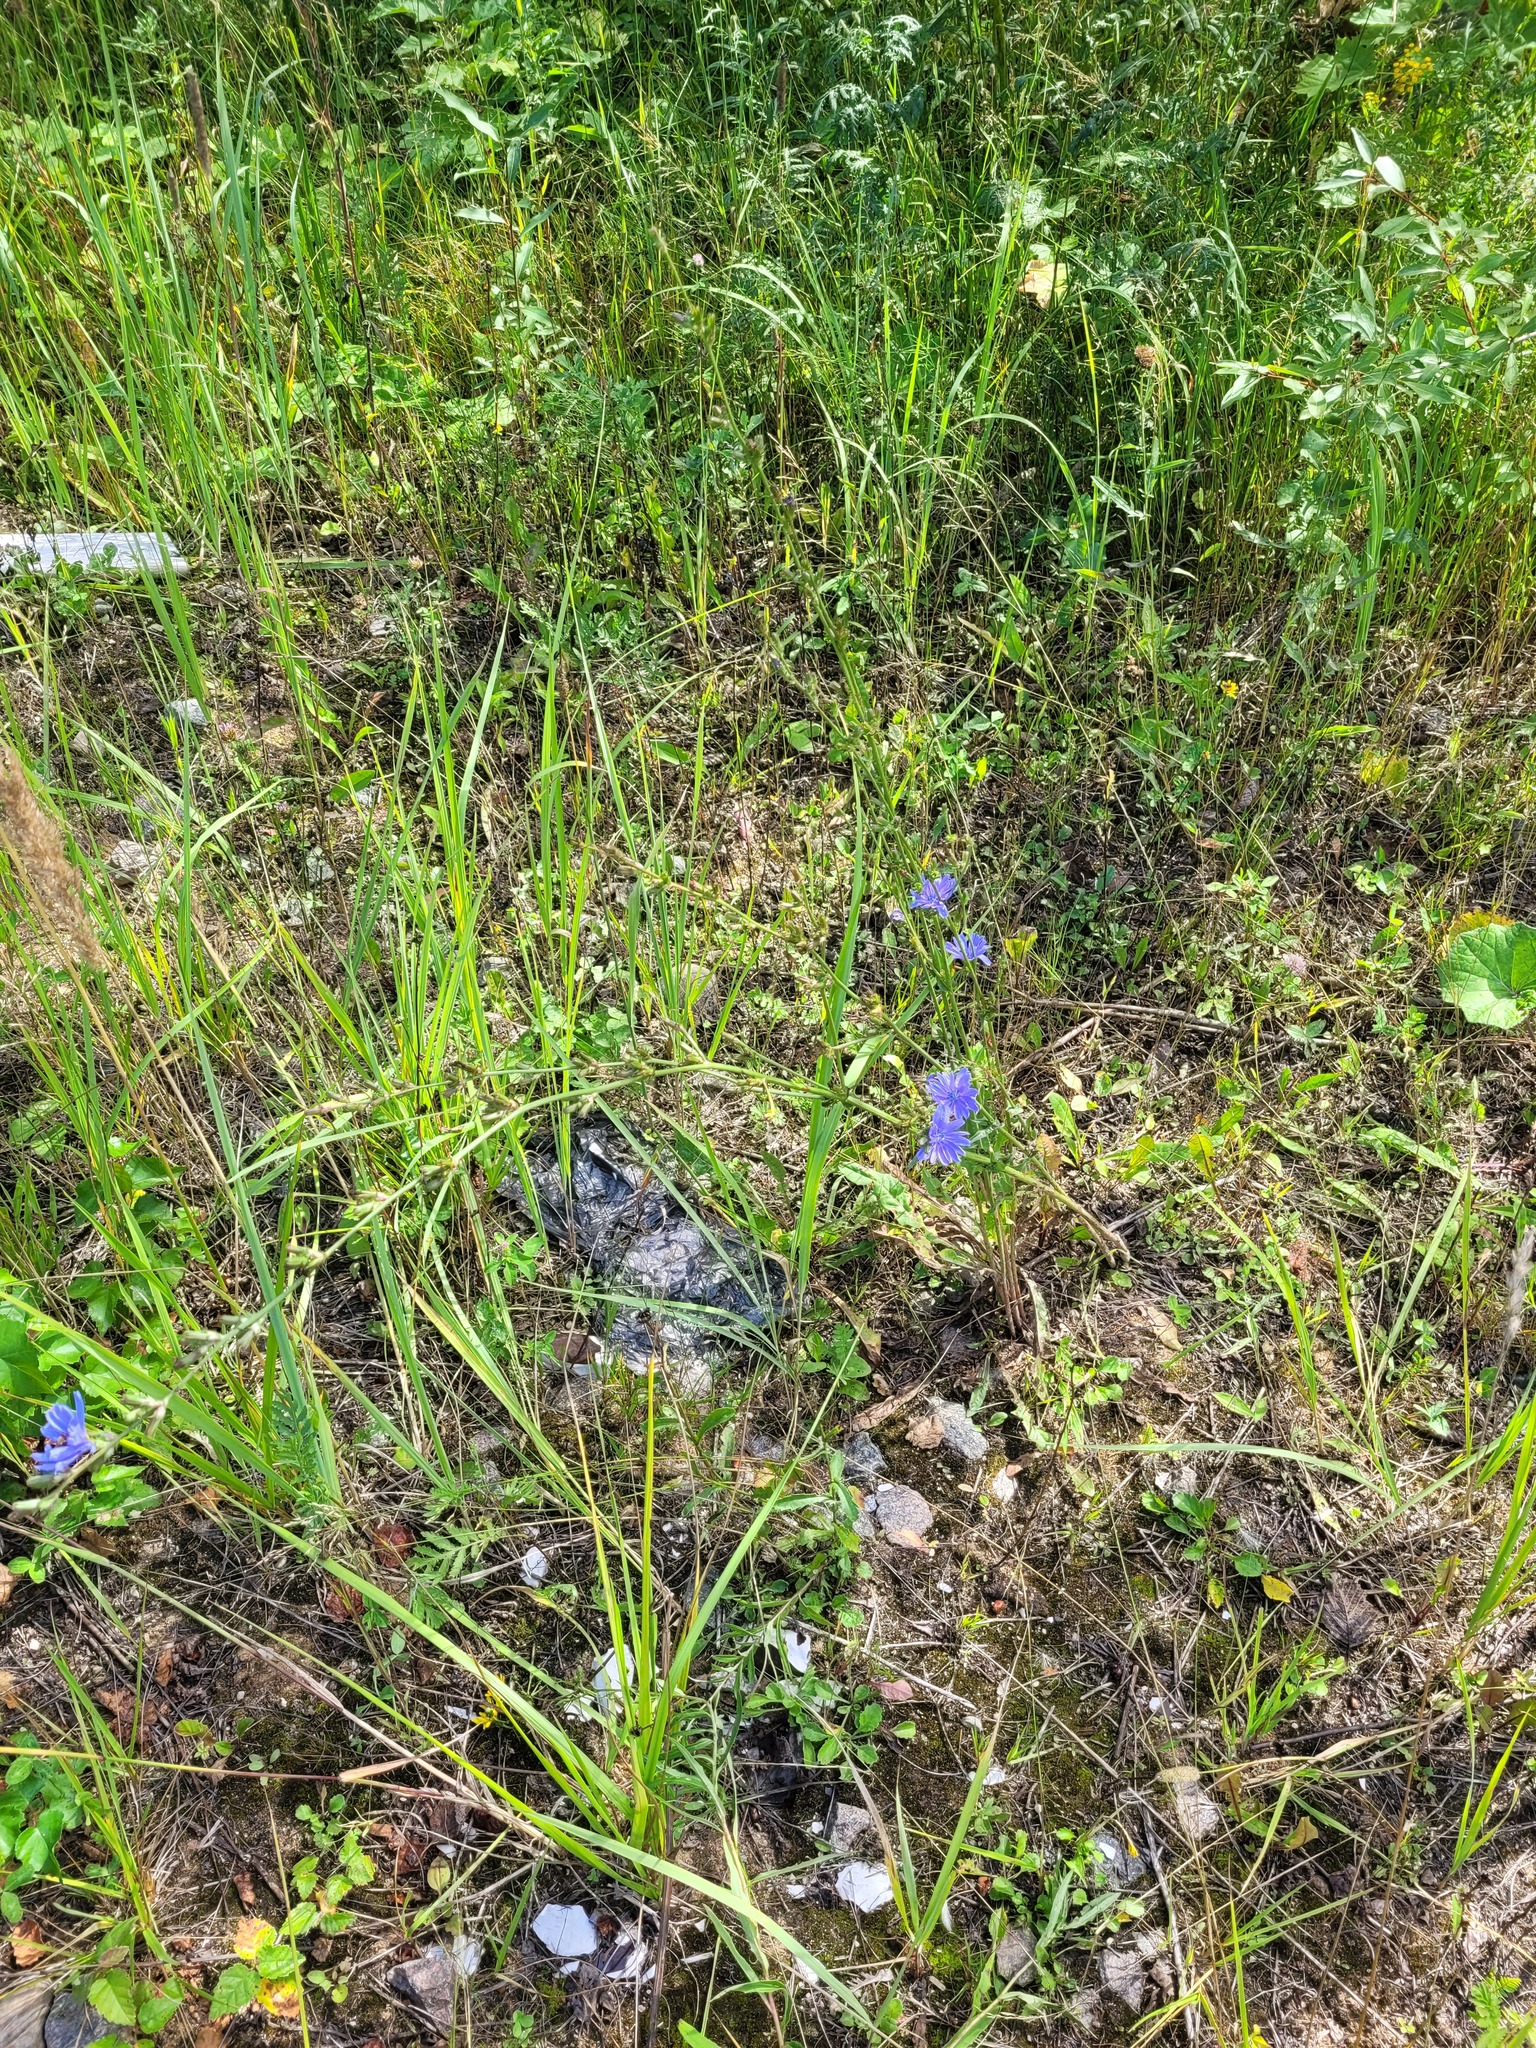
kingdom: Plantae
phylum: Tracheophyta
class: Magnoliopsida
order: Asterales
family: Asteraceae
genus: Cichorium
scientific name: Cichorium intybus
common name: Chicory
